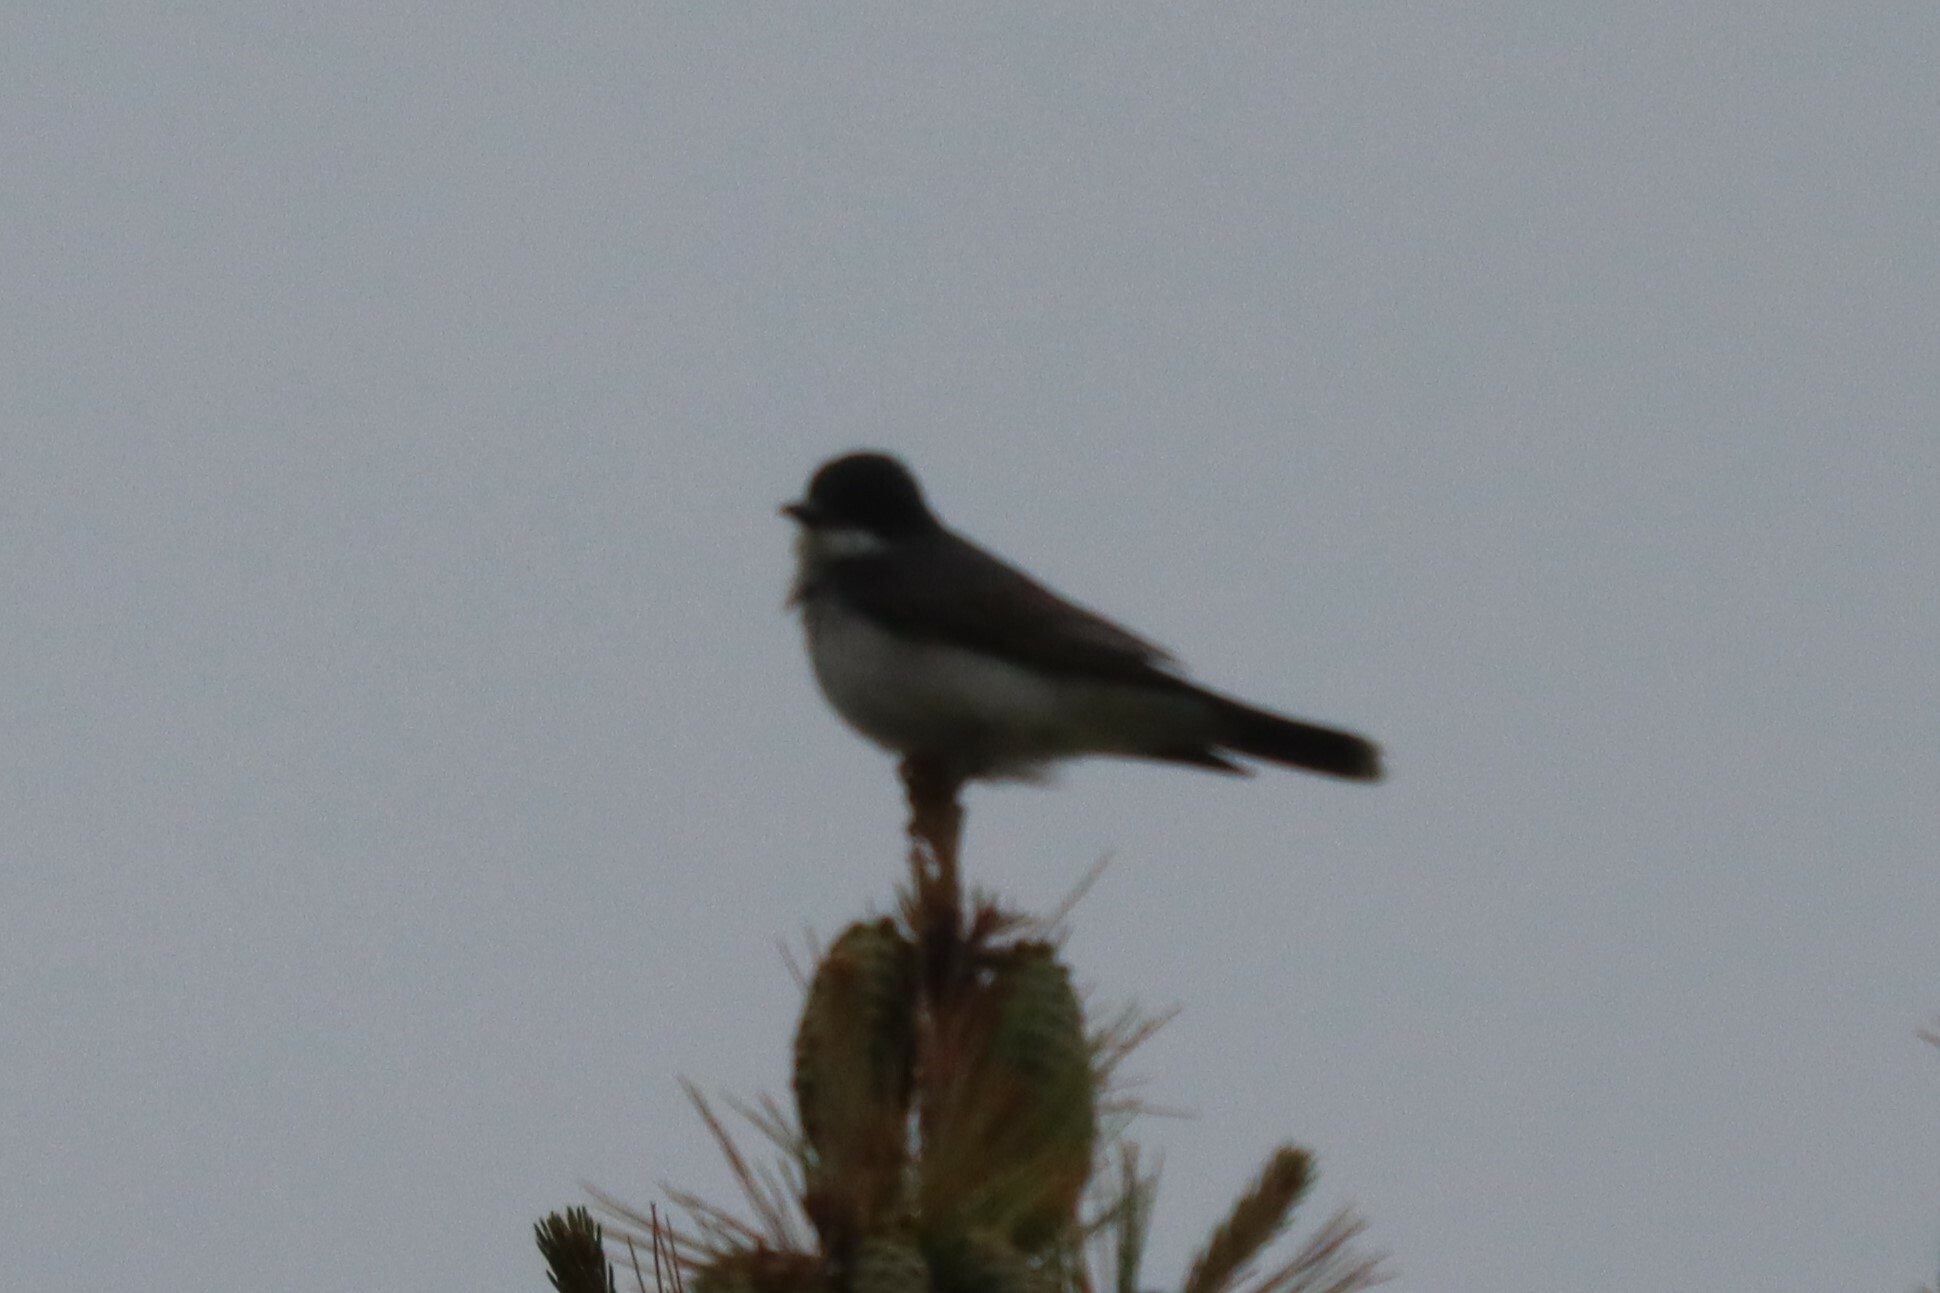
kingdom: Animalia
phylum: Chordata
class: Aves
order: Passeriformes
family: Tyrannidae
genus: Tyrannus
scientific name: Tyrannus tyrannus
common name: Eastern kingbird
